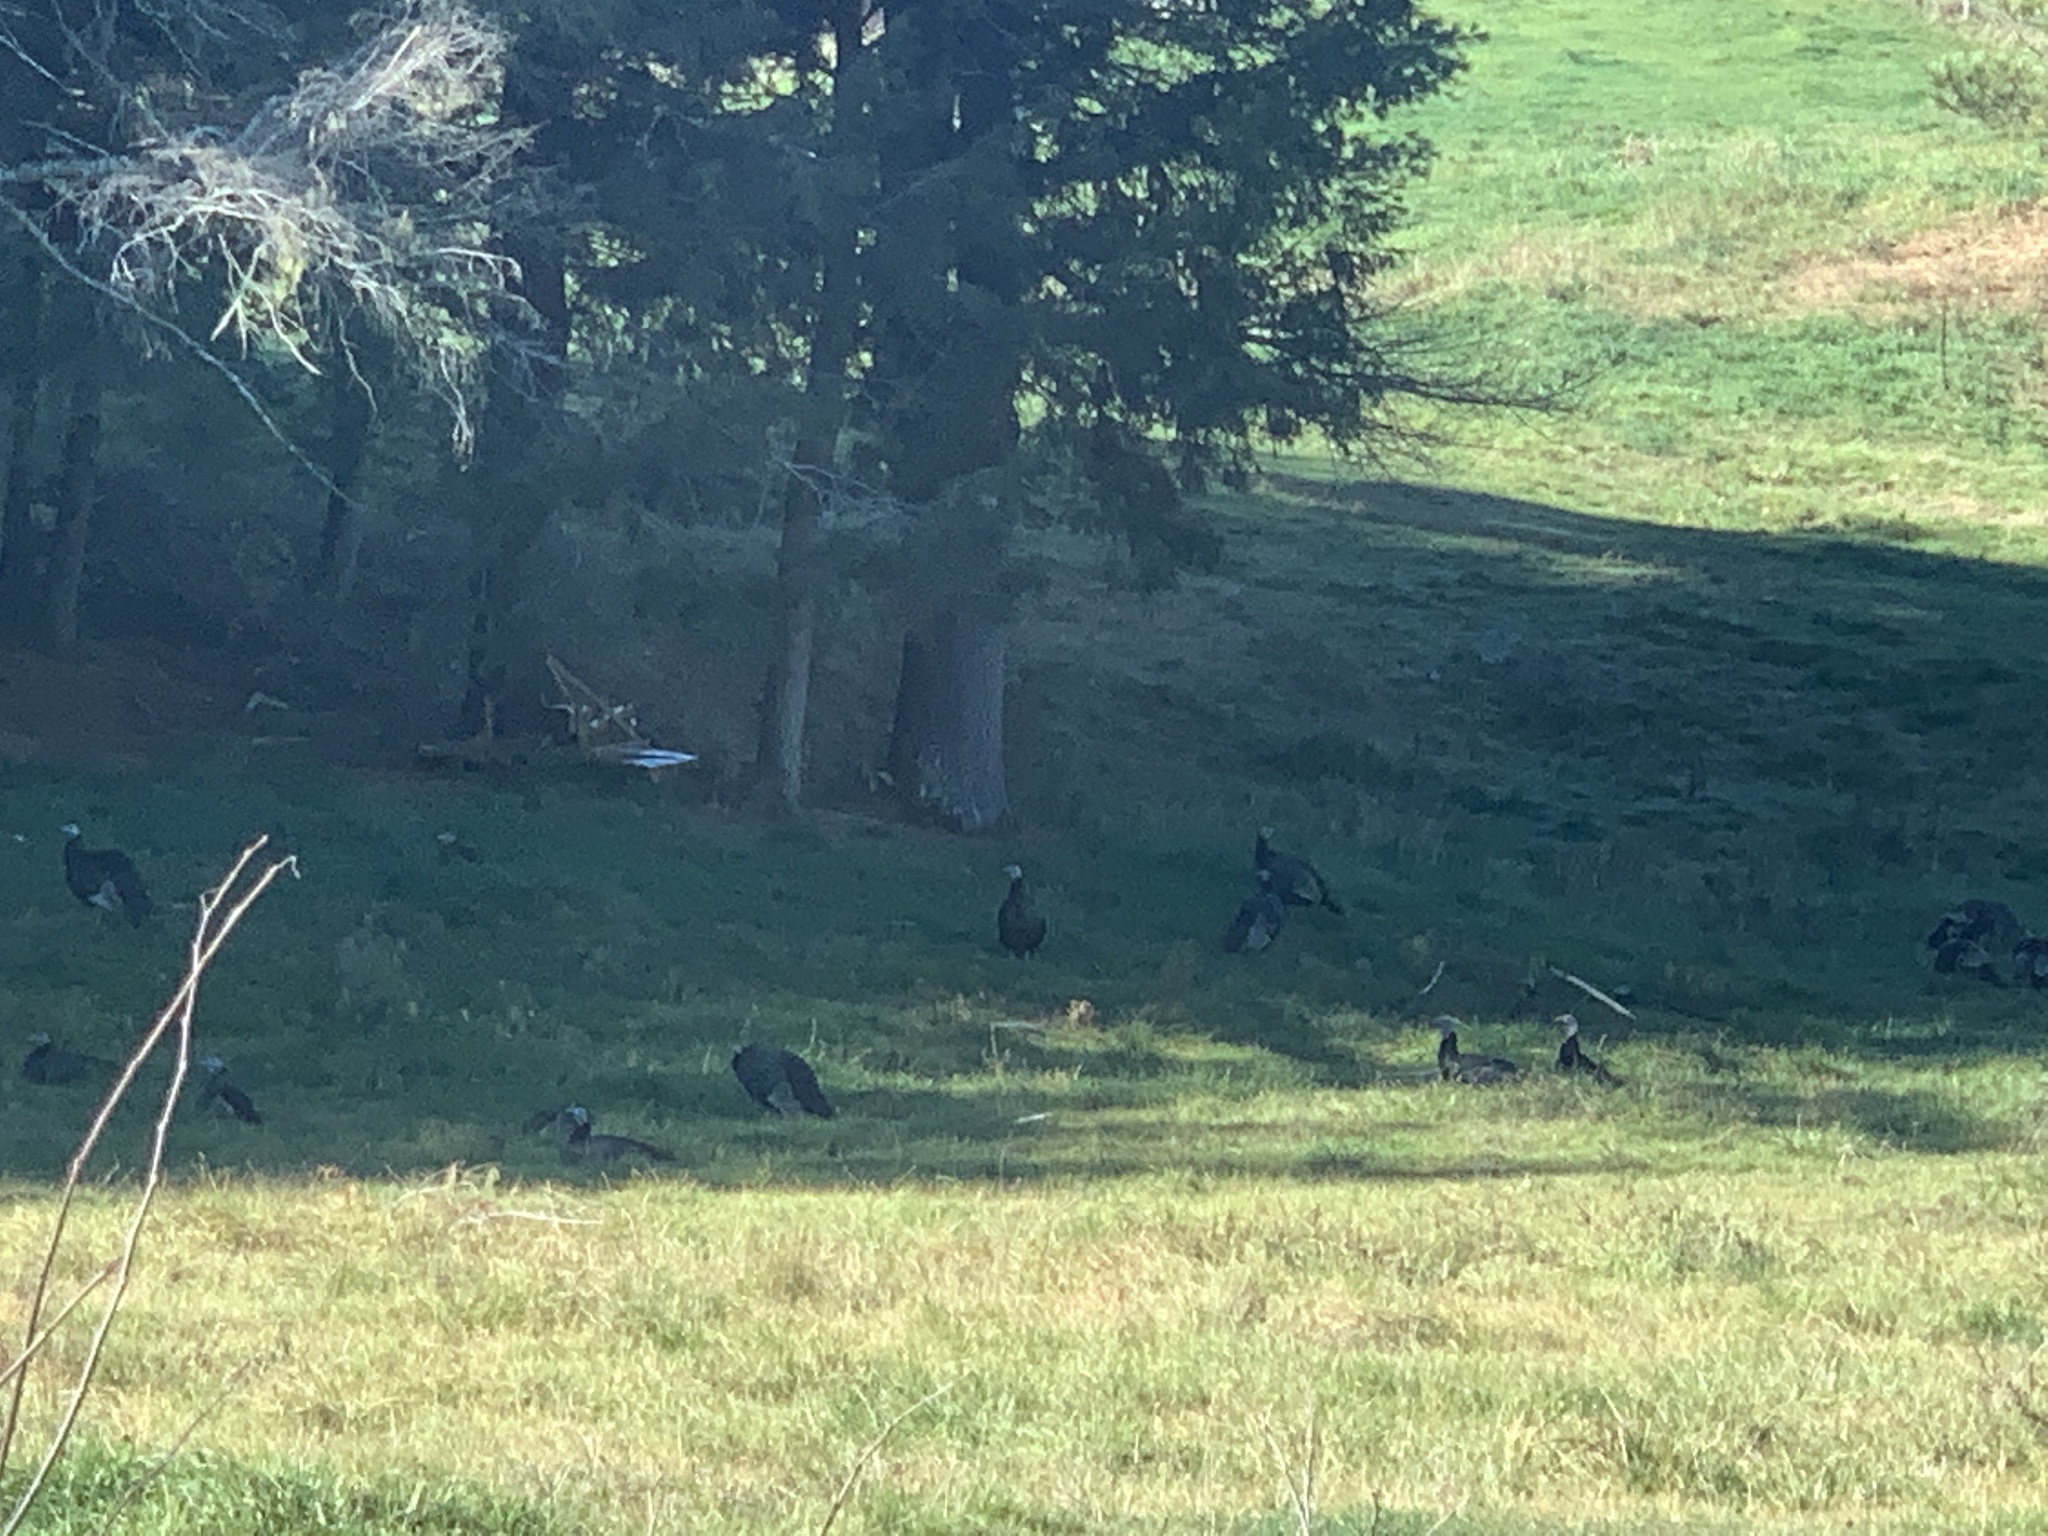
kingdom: Animalia
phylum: Chordata
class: Aves
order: Galliformes
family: Phasianidae
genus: Meleagris
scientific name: Meleagris gallopavo
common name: Wild turkey
